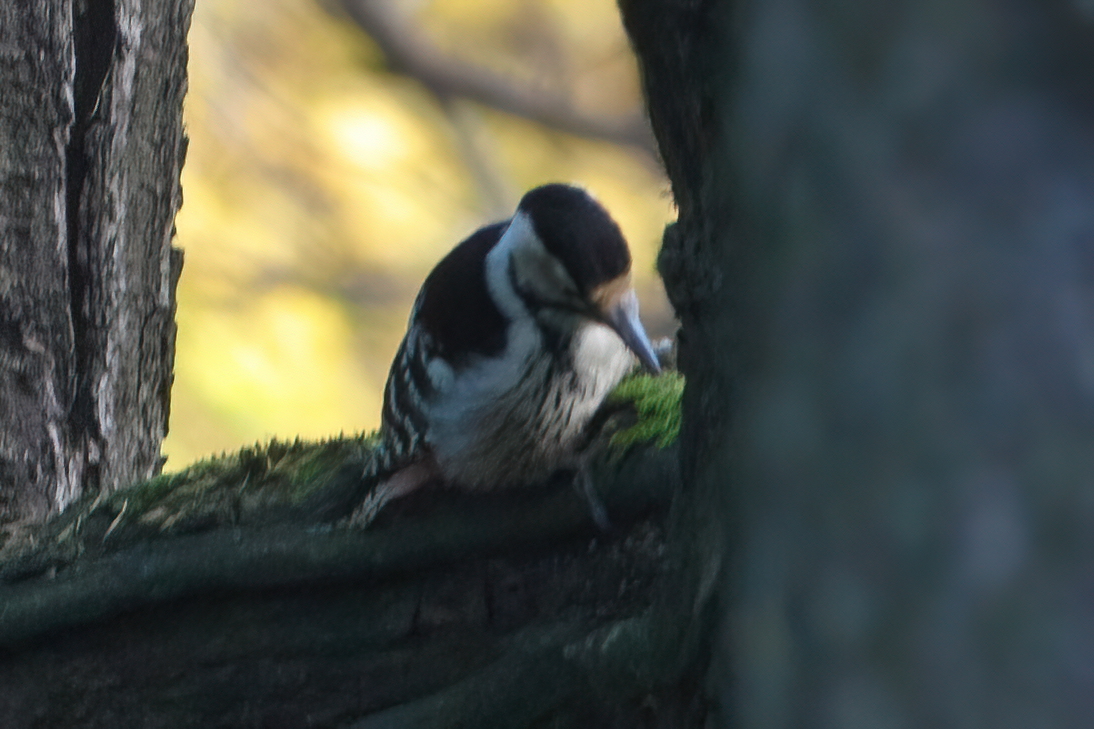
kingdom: Animalia
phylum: Chordata
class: Aves
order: Piciformes
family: Picidae
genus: Dendrocopos
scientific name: Dendrocopos leucotos
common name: White-backed woodpecker
